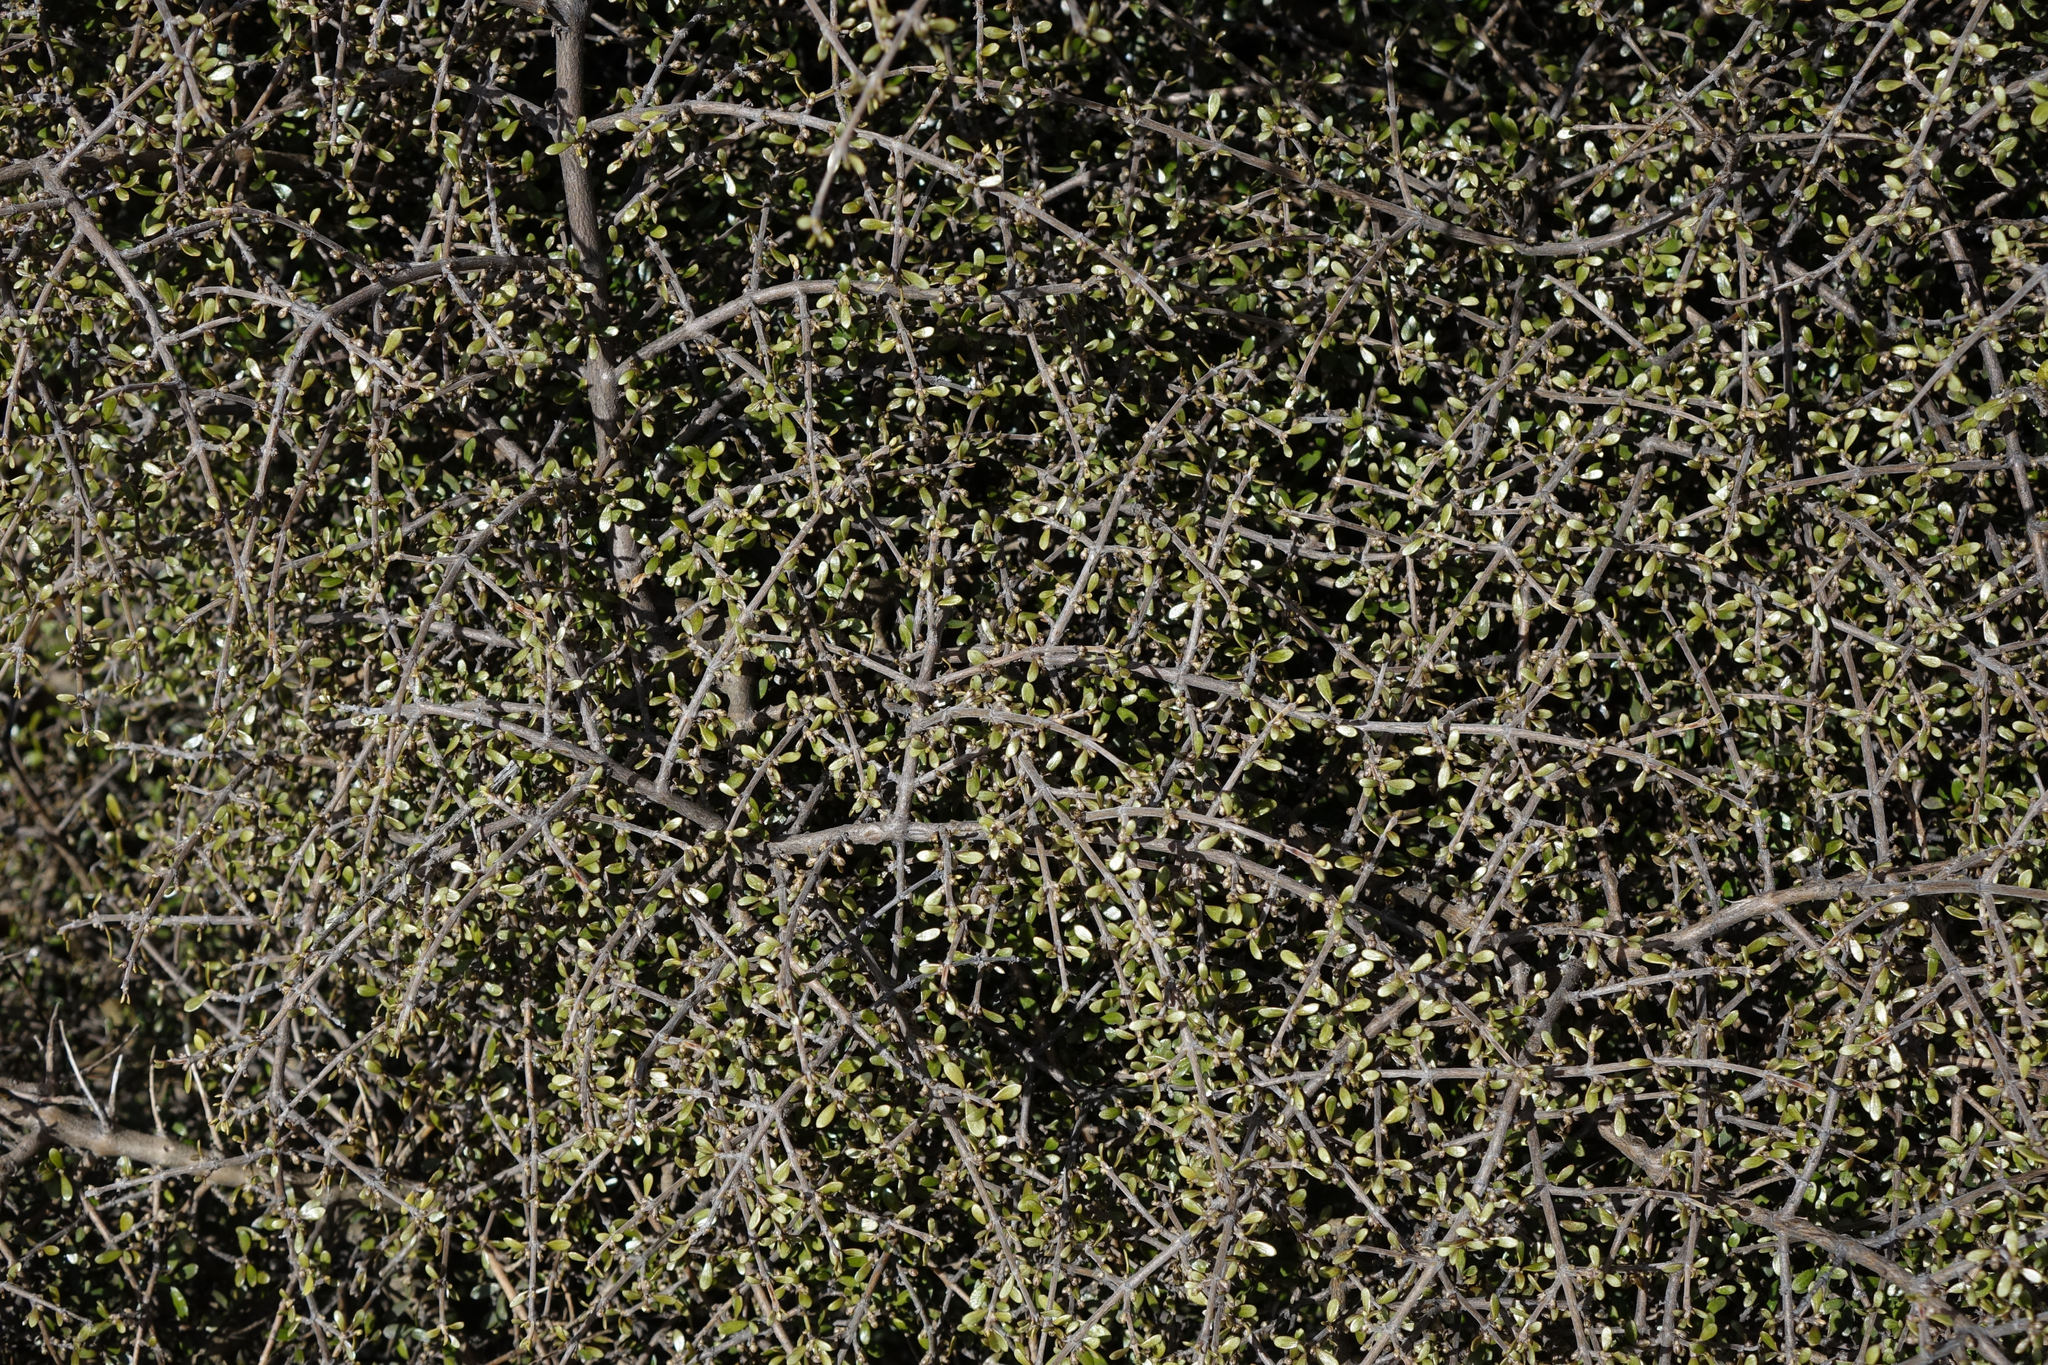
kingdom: Plantae
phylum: Tracheophyta
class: Magnoliopsida
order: Gentianales
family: Rubiaceae
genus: Coprosma
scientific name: Coprosma dumosa
